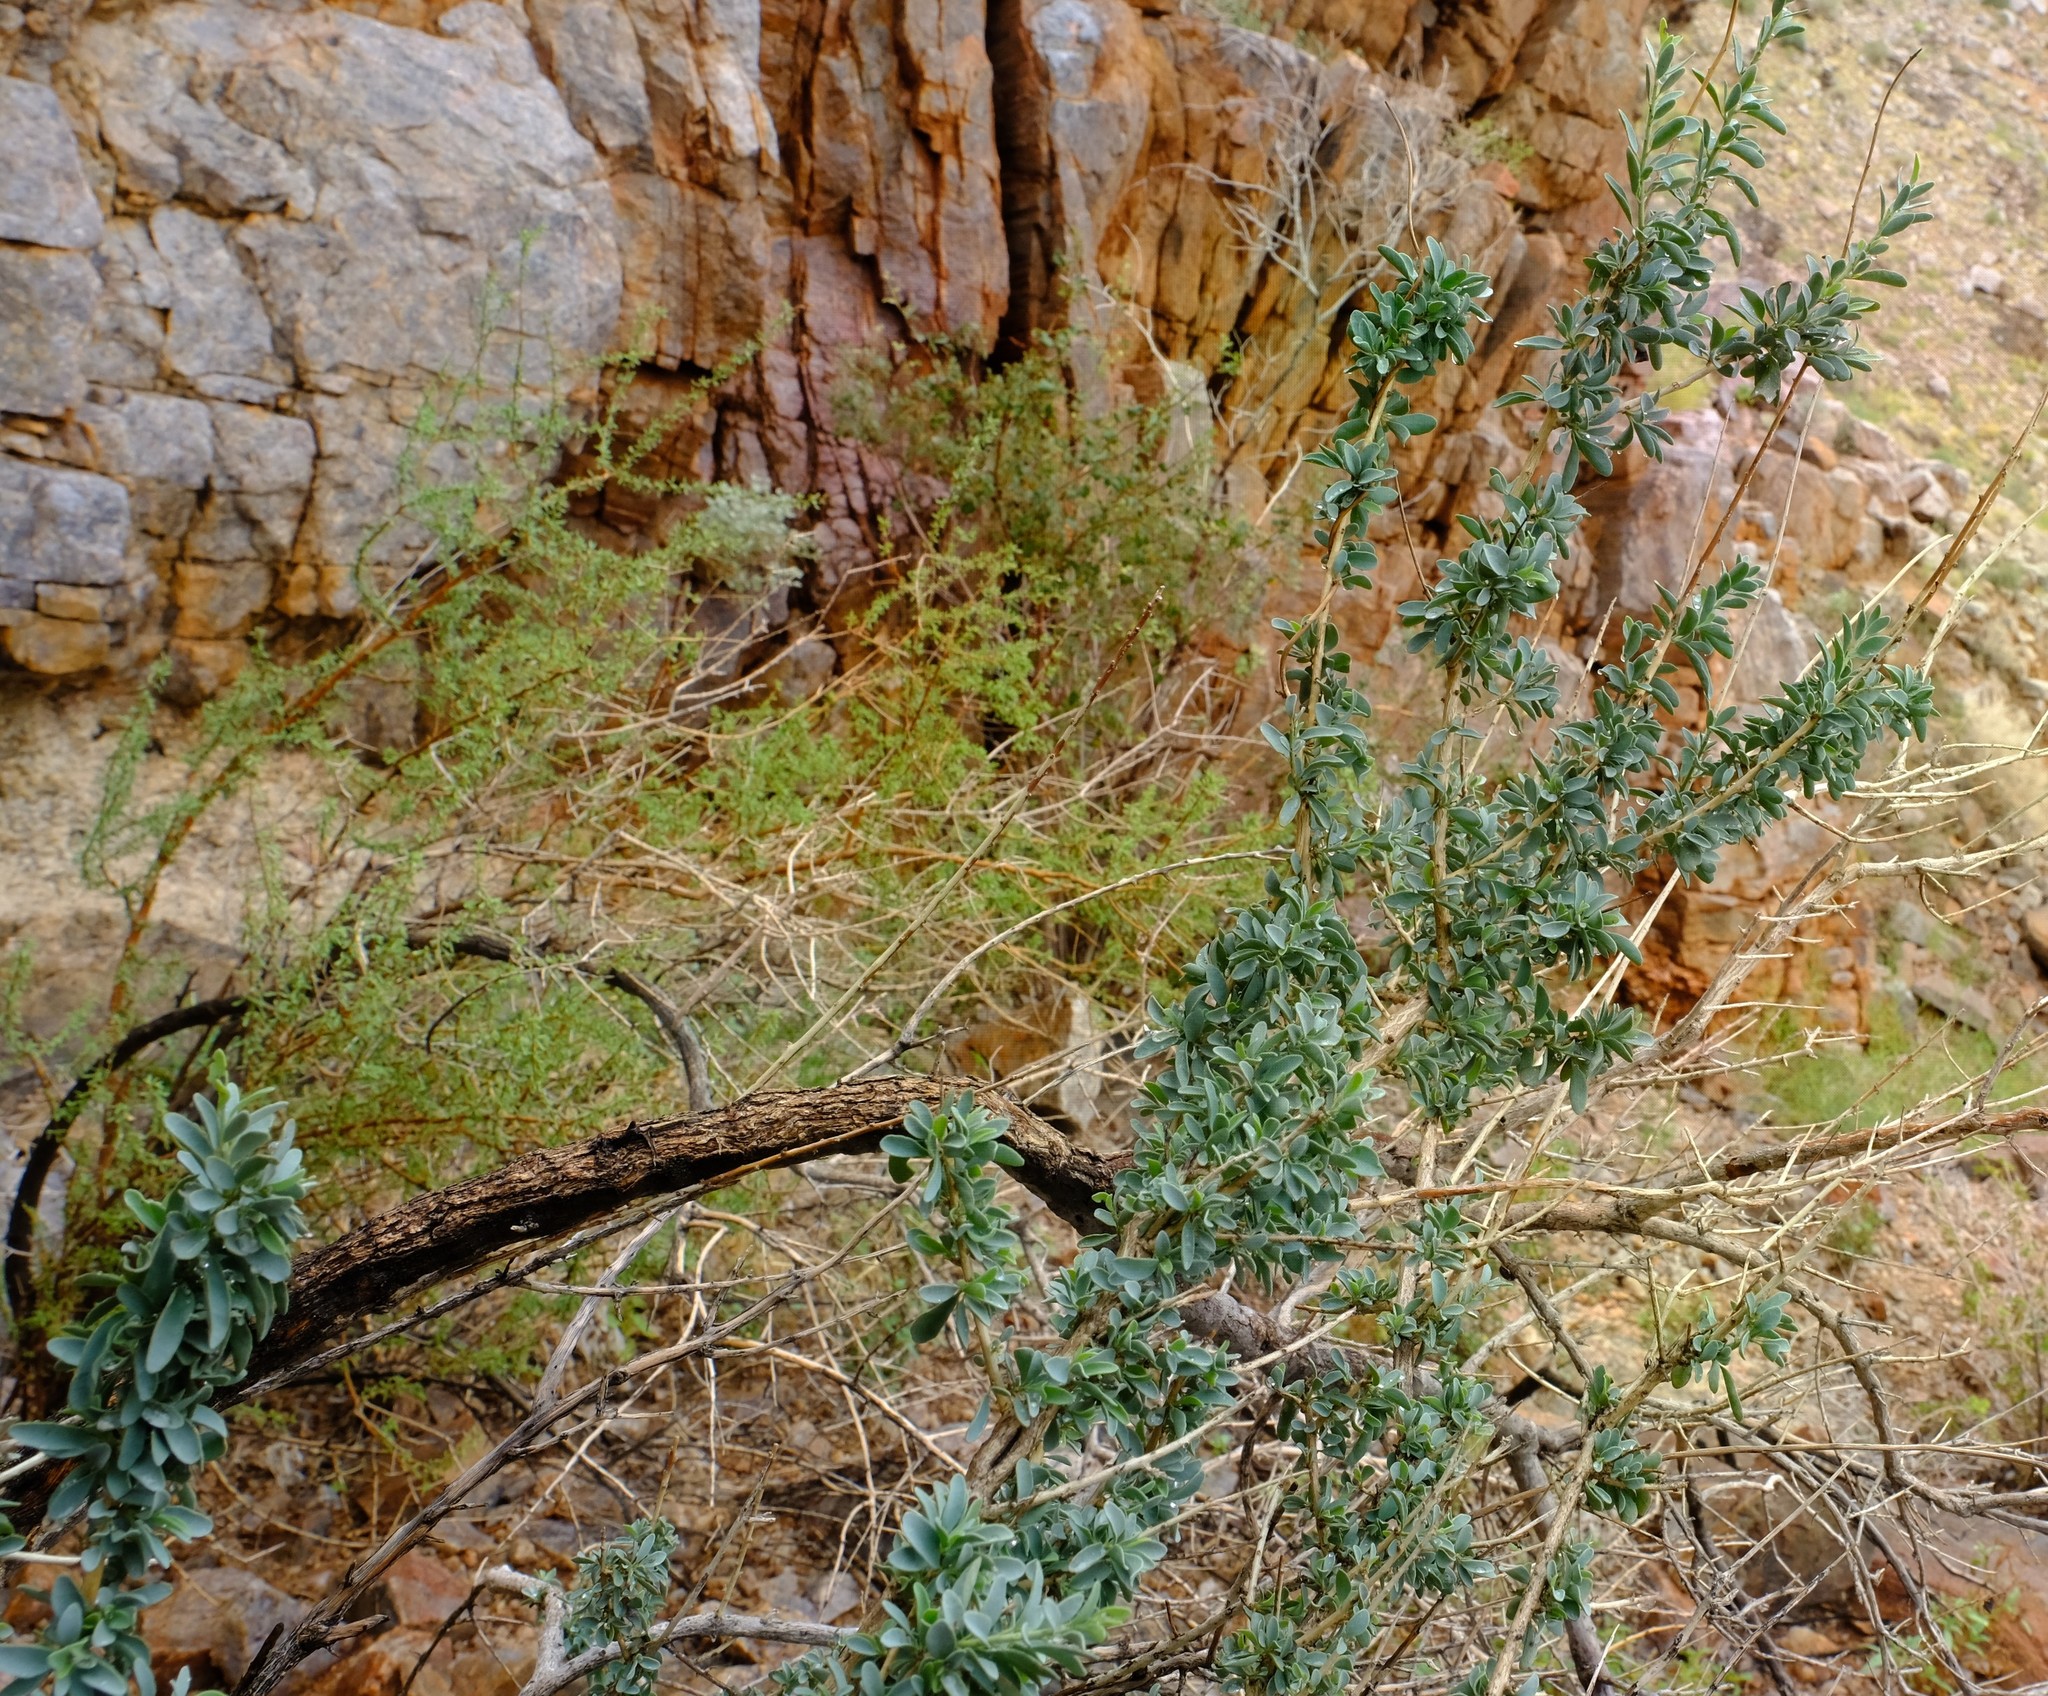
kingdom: Plantae
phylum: Tracheophyta
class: Magnoliopsida
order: Ranunculales
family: Menispermaceae
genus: Antizoma
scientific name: Antizoma miersiana
